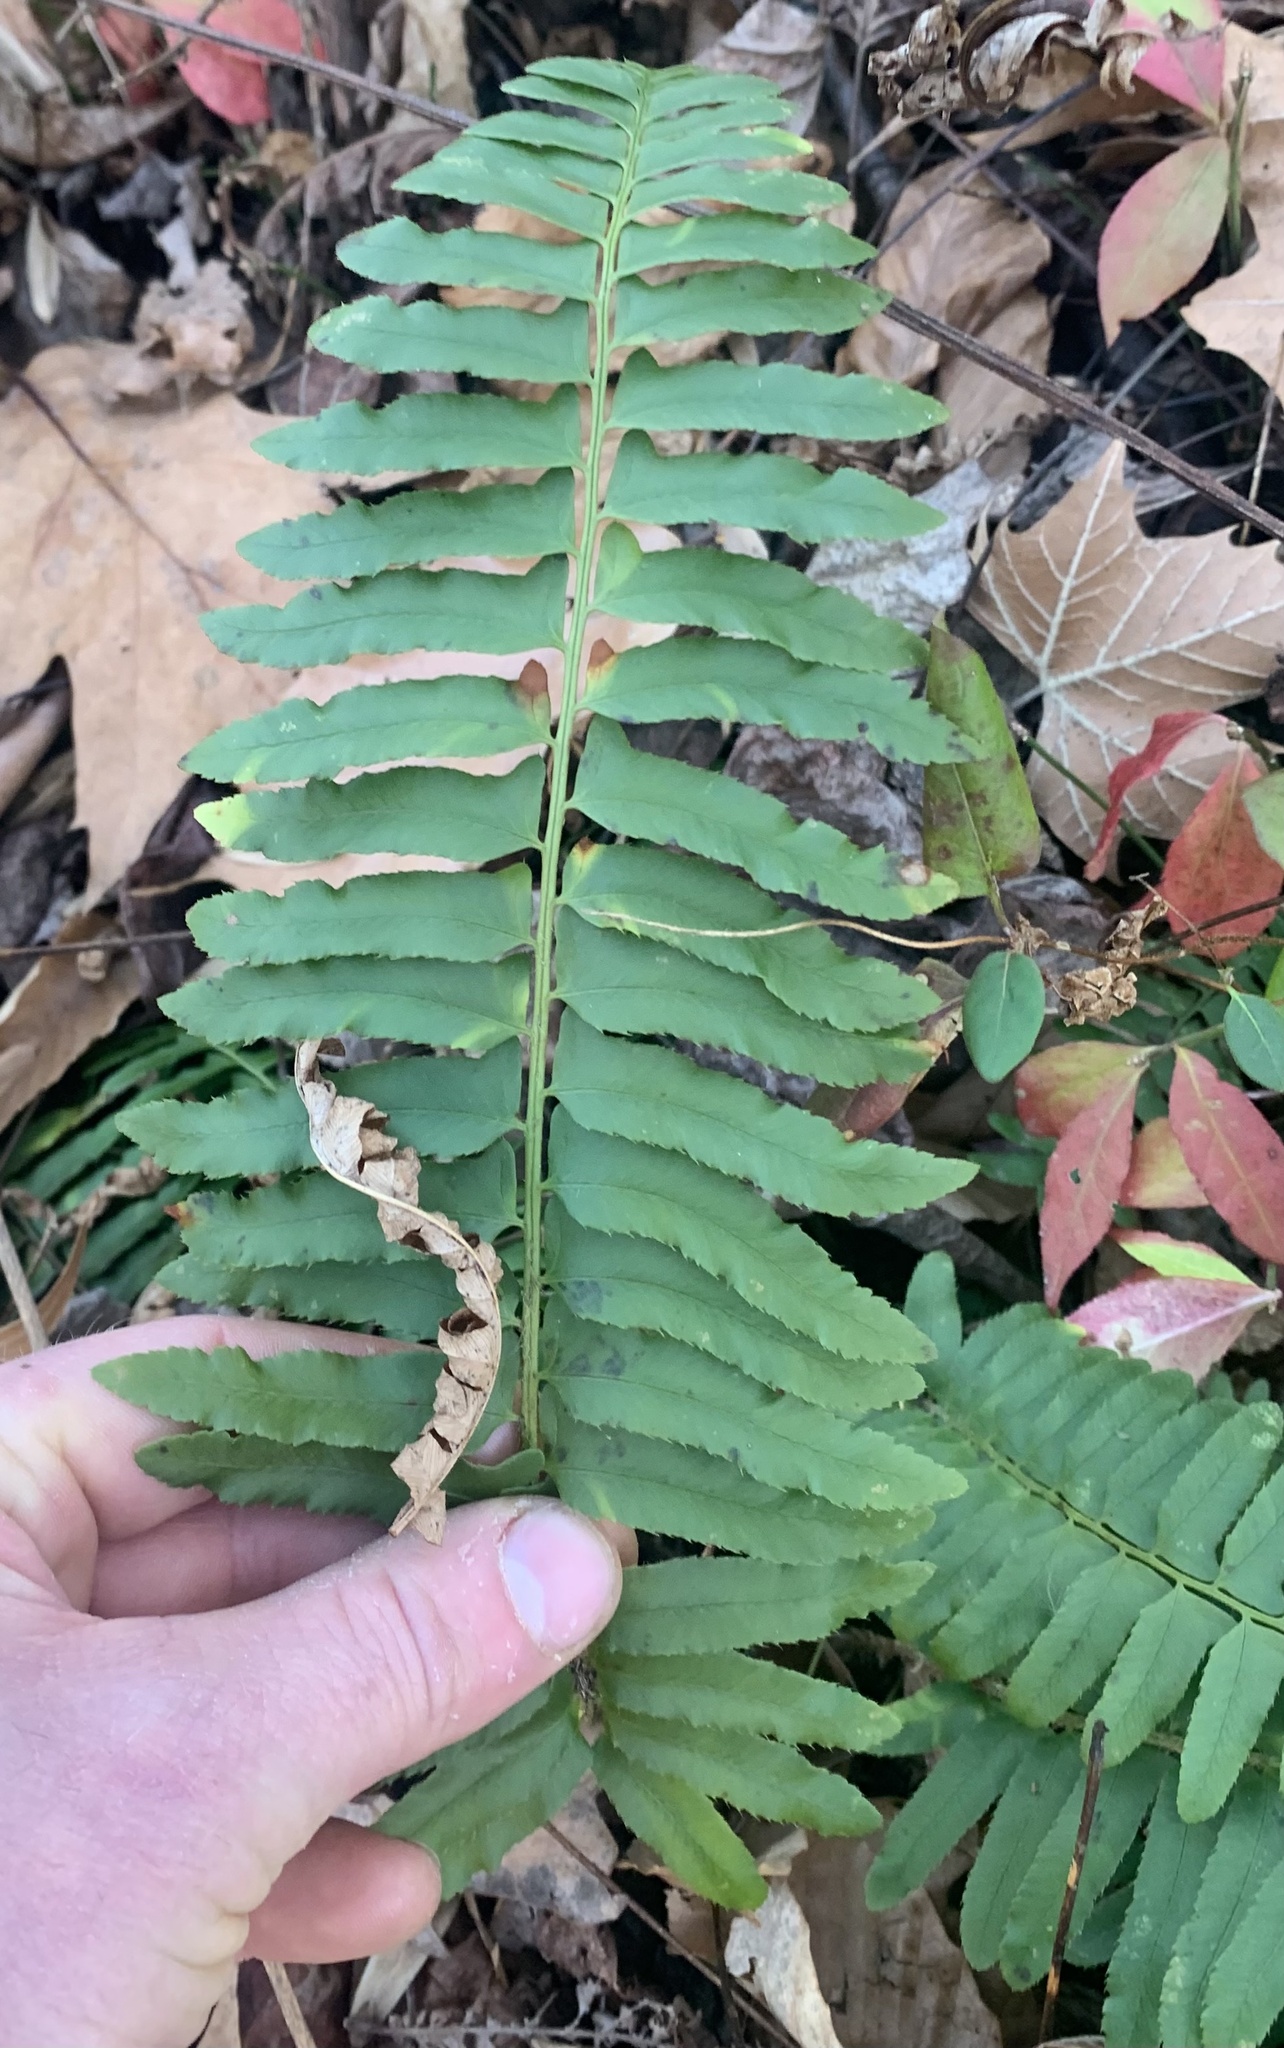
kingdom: Plantae
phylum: Tracheophyta
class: Polypodiopsida
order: Polypodiales
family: Dryopteridaceae
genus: Polystichum
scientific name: Polystichum acrostichoides
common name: Christmas fern
